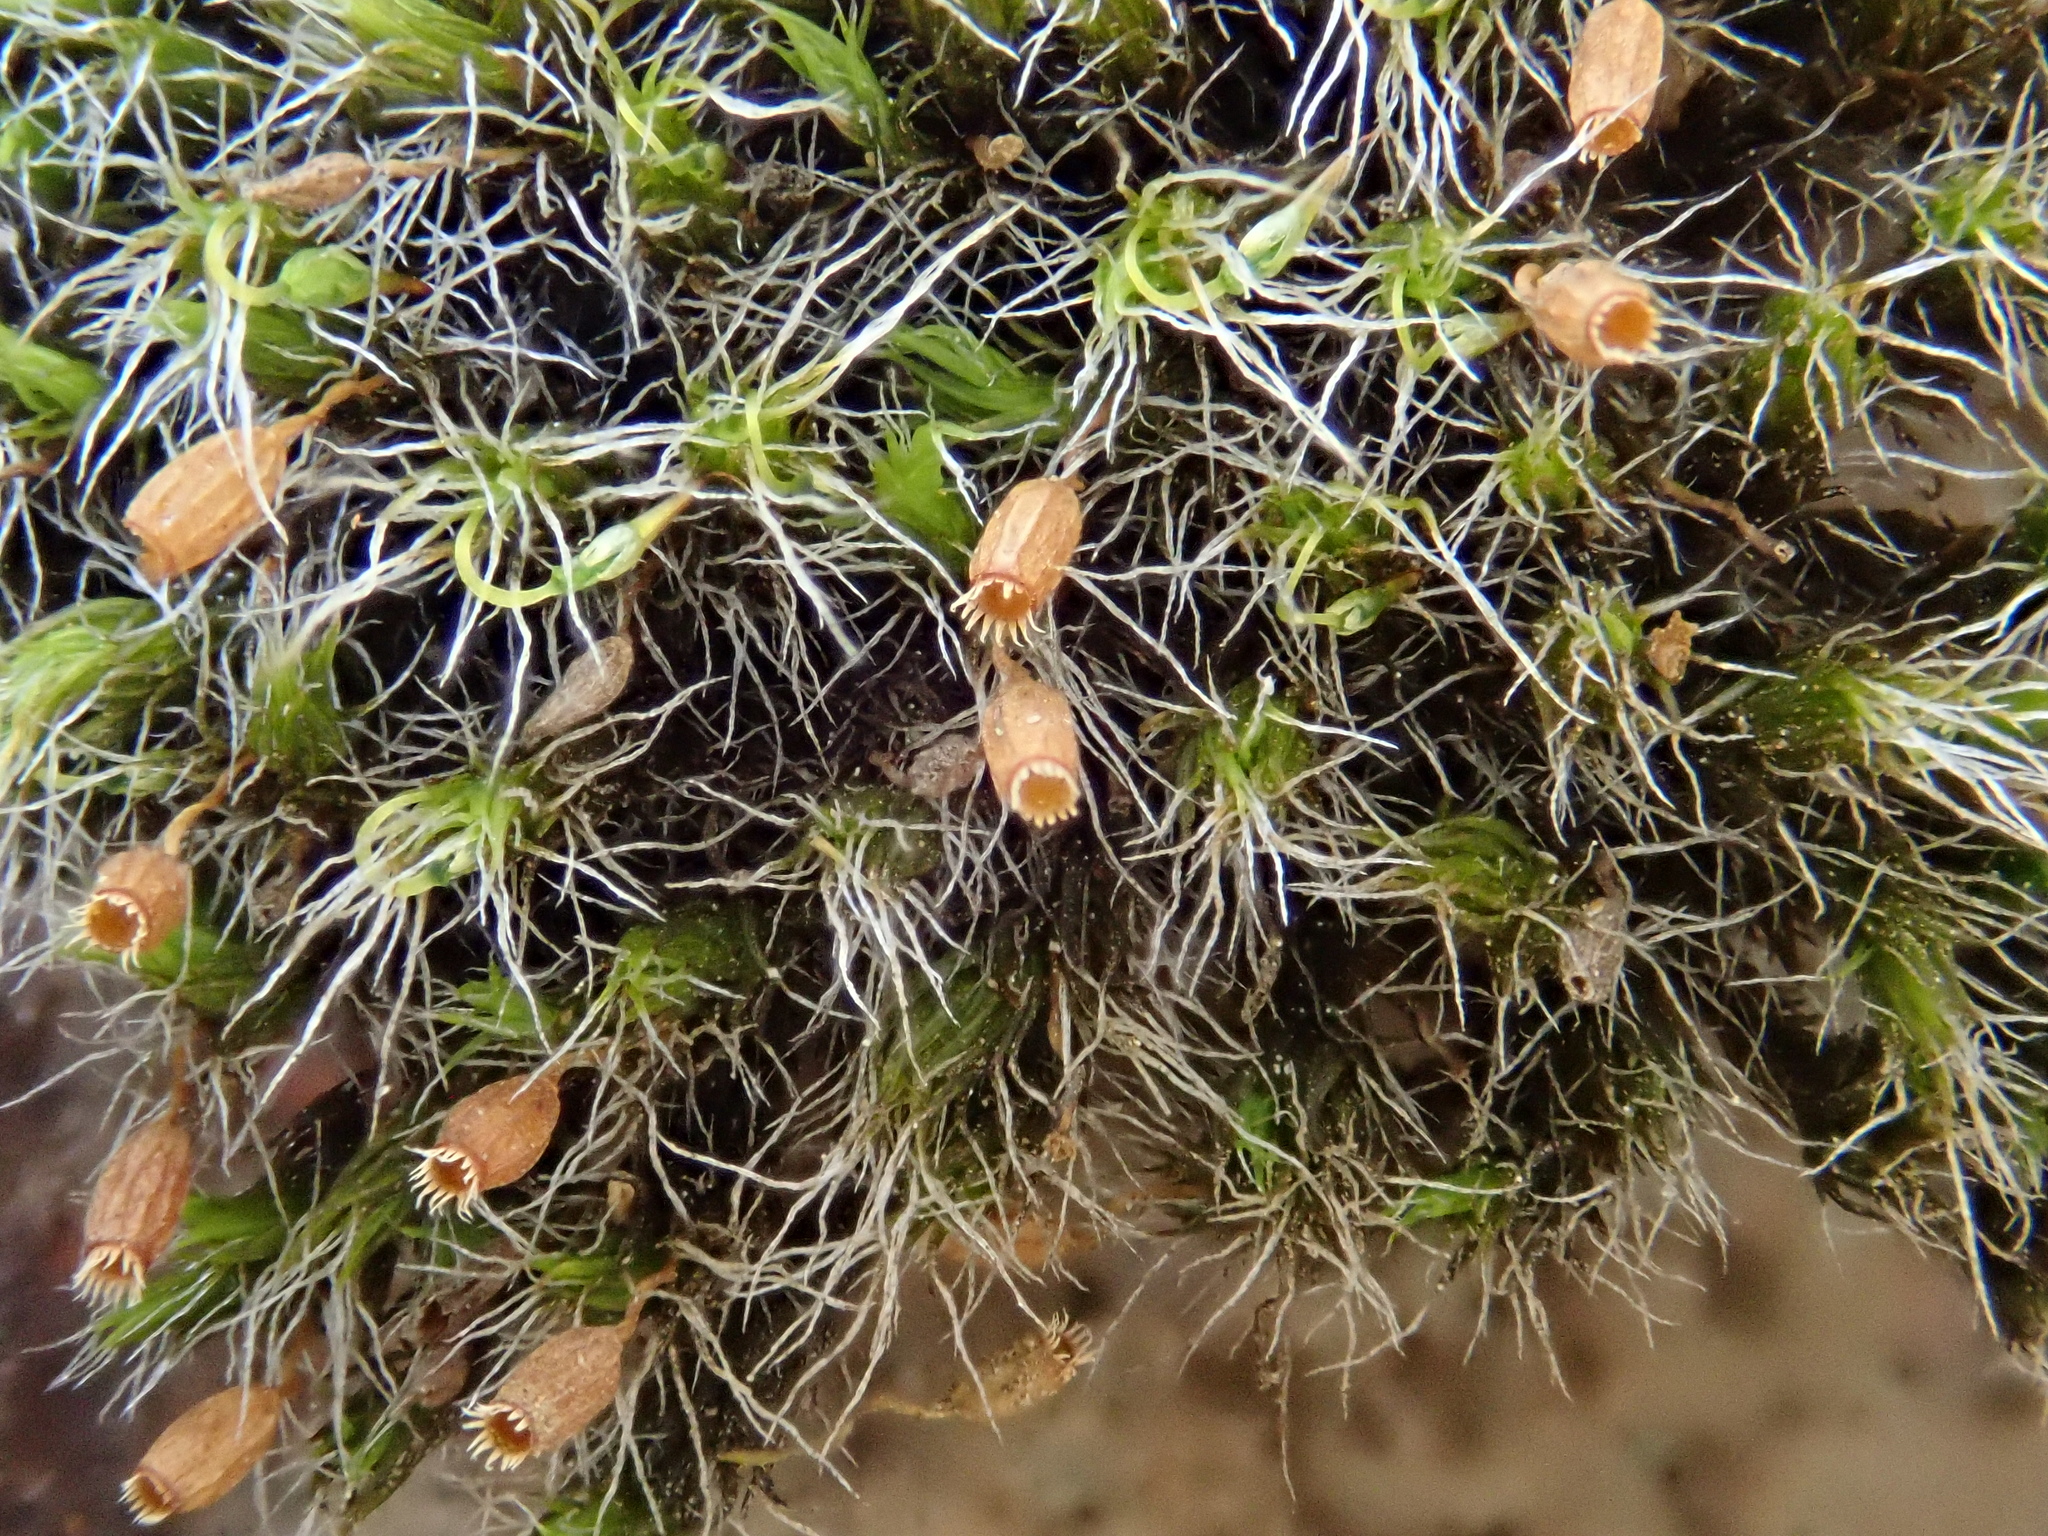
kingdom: Plantae
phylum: Bryophyta
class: Bryopsida
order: Grimmiales
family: Grimmiaceae
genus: Grimmia
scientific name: Grimmia decipiens
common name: Great grimmia
